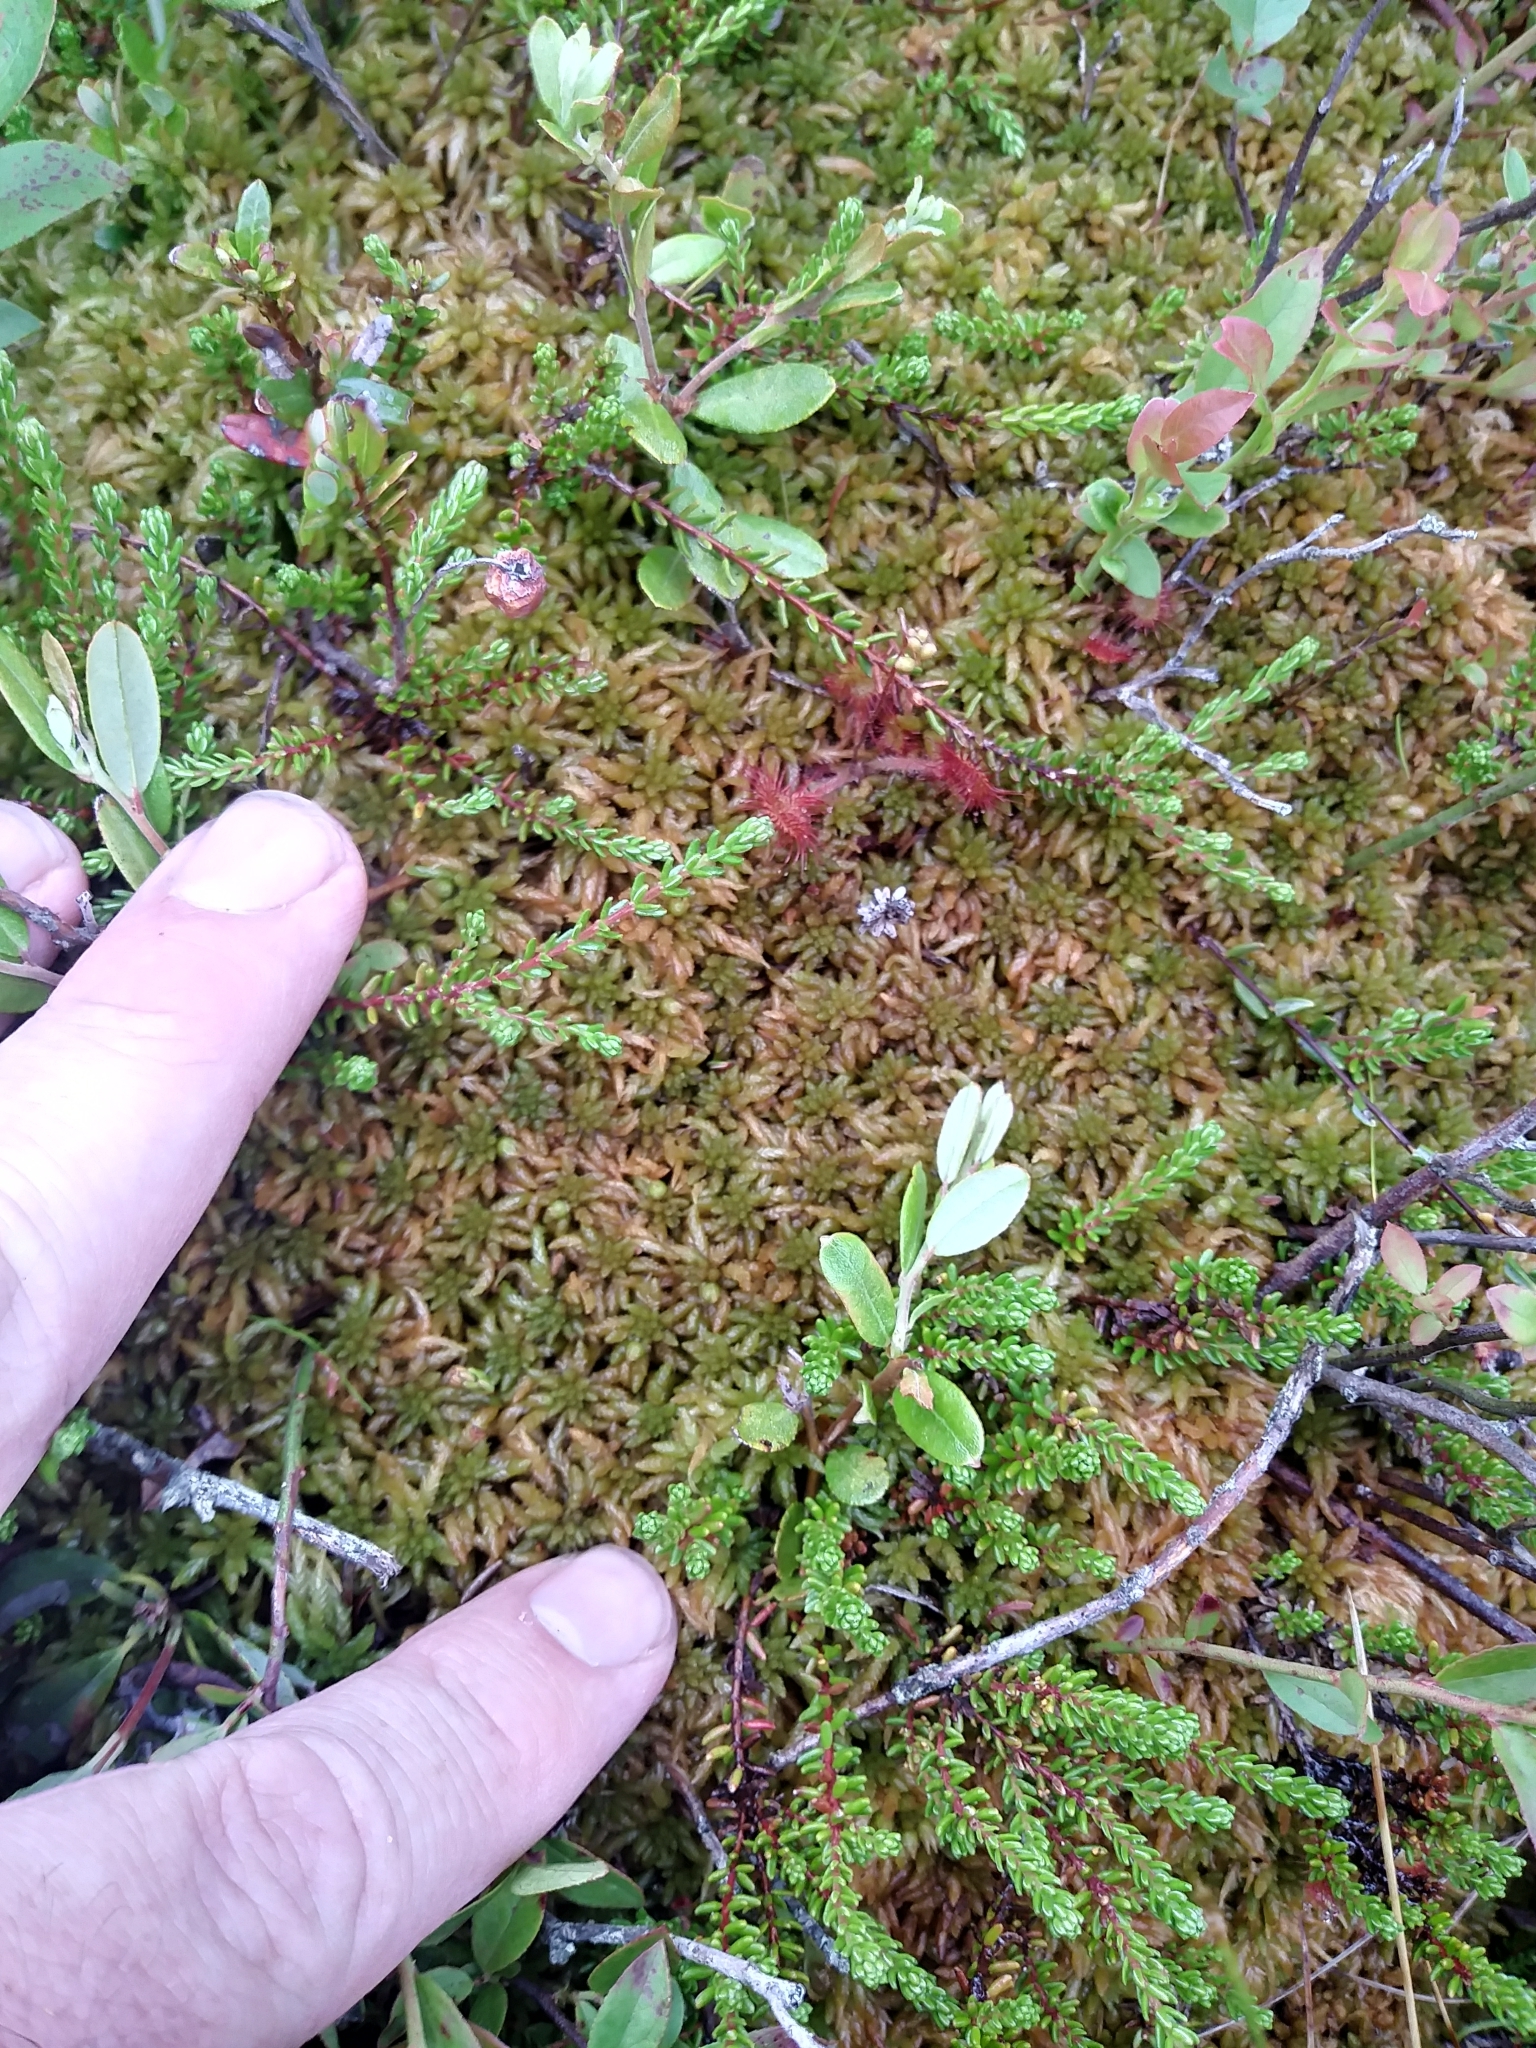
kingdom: Plantae
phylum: Bryophyta
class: Sphagnopsida
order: Sphagnales
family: Sphagnaceae
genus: Sphagnum
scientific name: Sphagnum austinii
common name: Austin's peat moss
